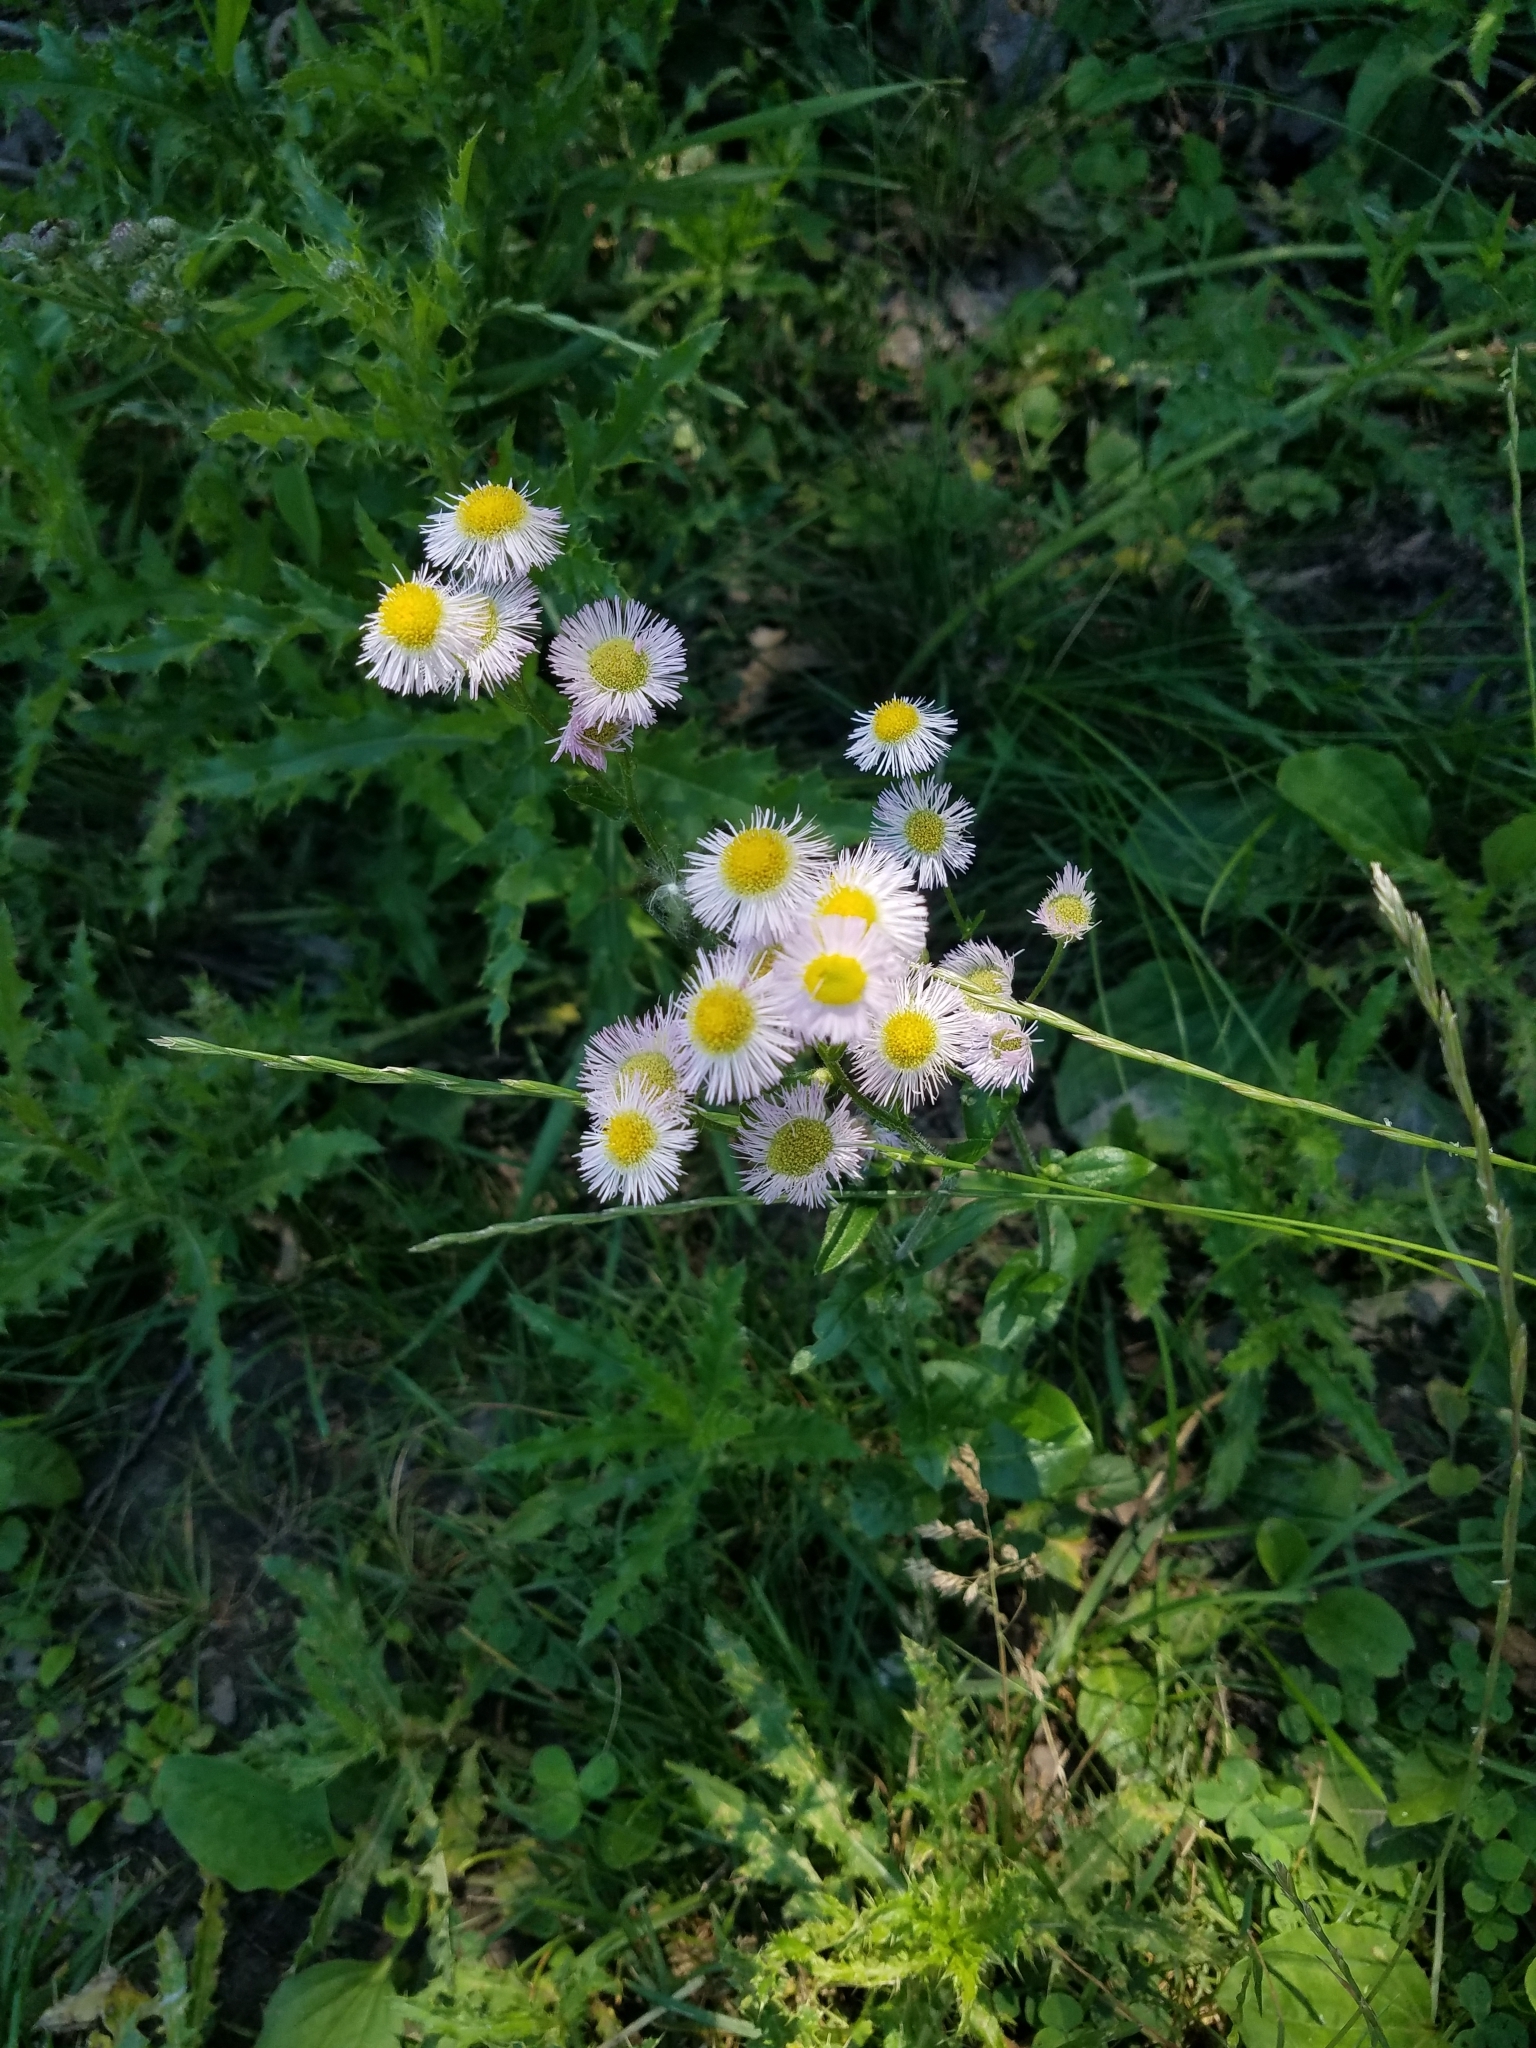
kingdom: Plantae
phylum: Tracheophyta
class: Magnoliopsida
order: Asterales
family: Asteraceae
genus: Erigeron
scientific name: Erigeron philadelphicus
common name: Robin's-plantain
